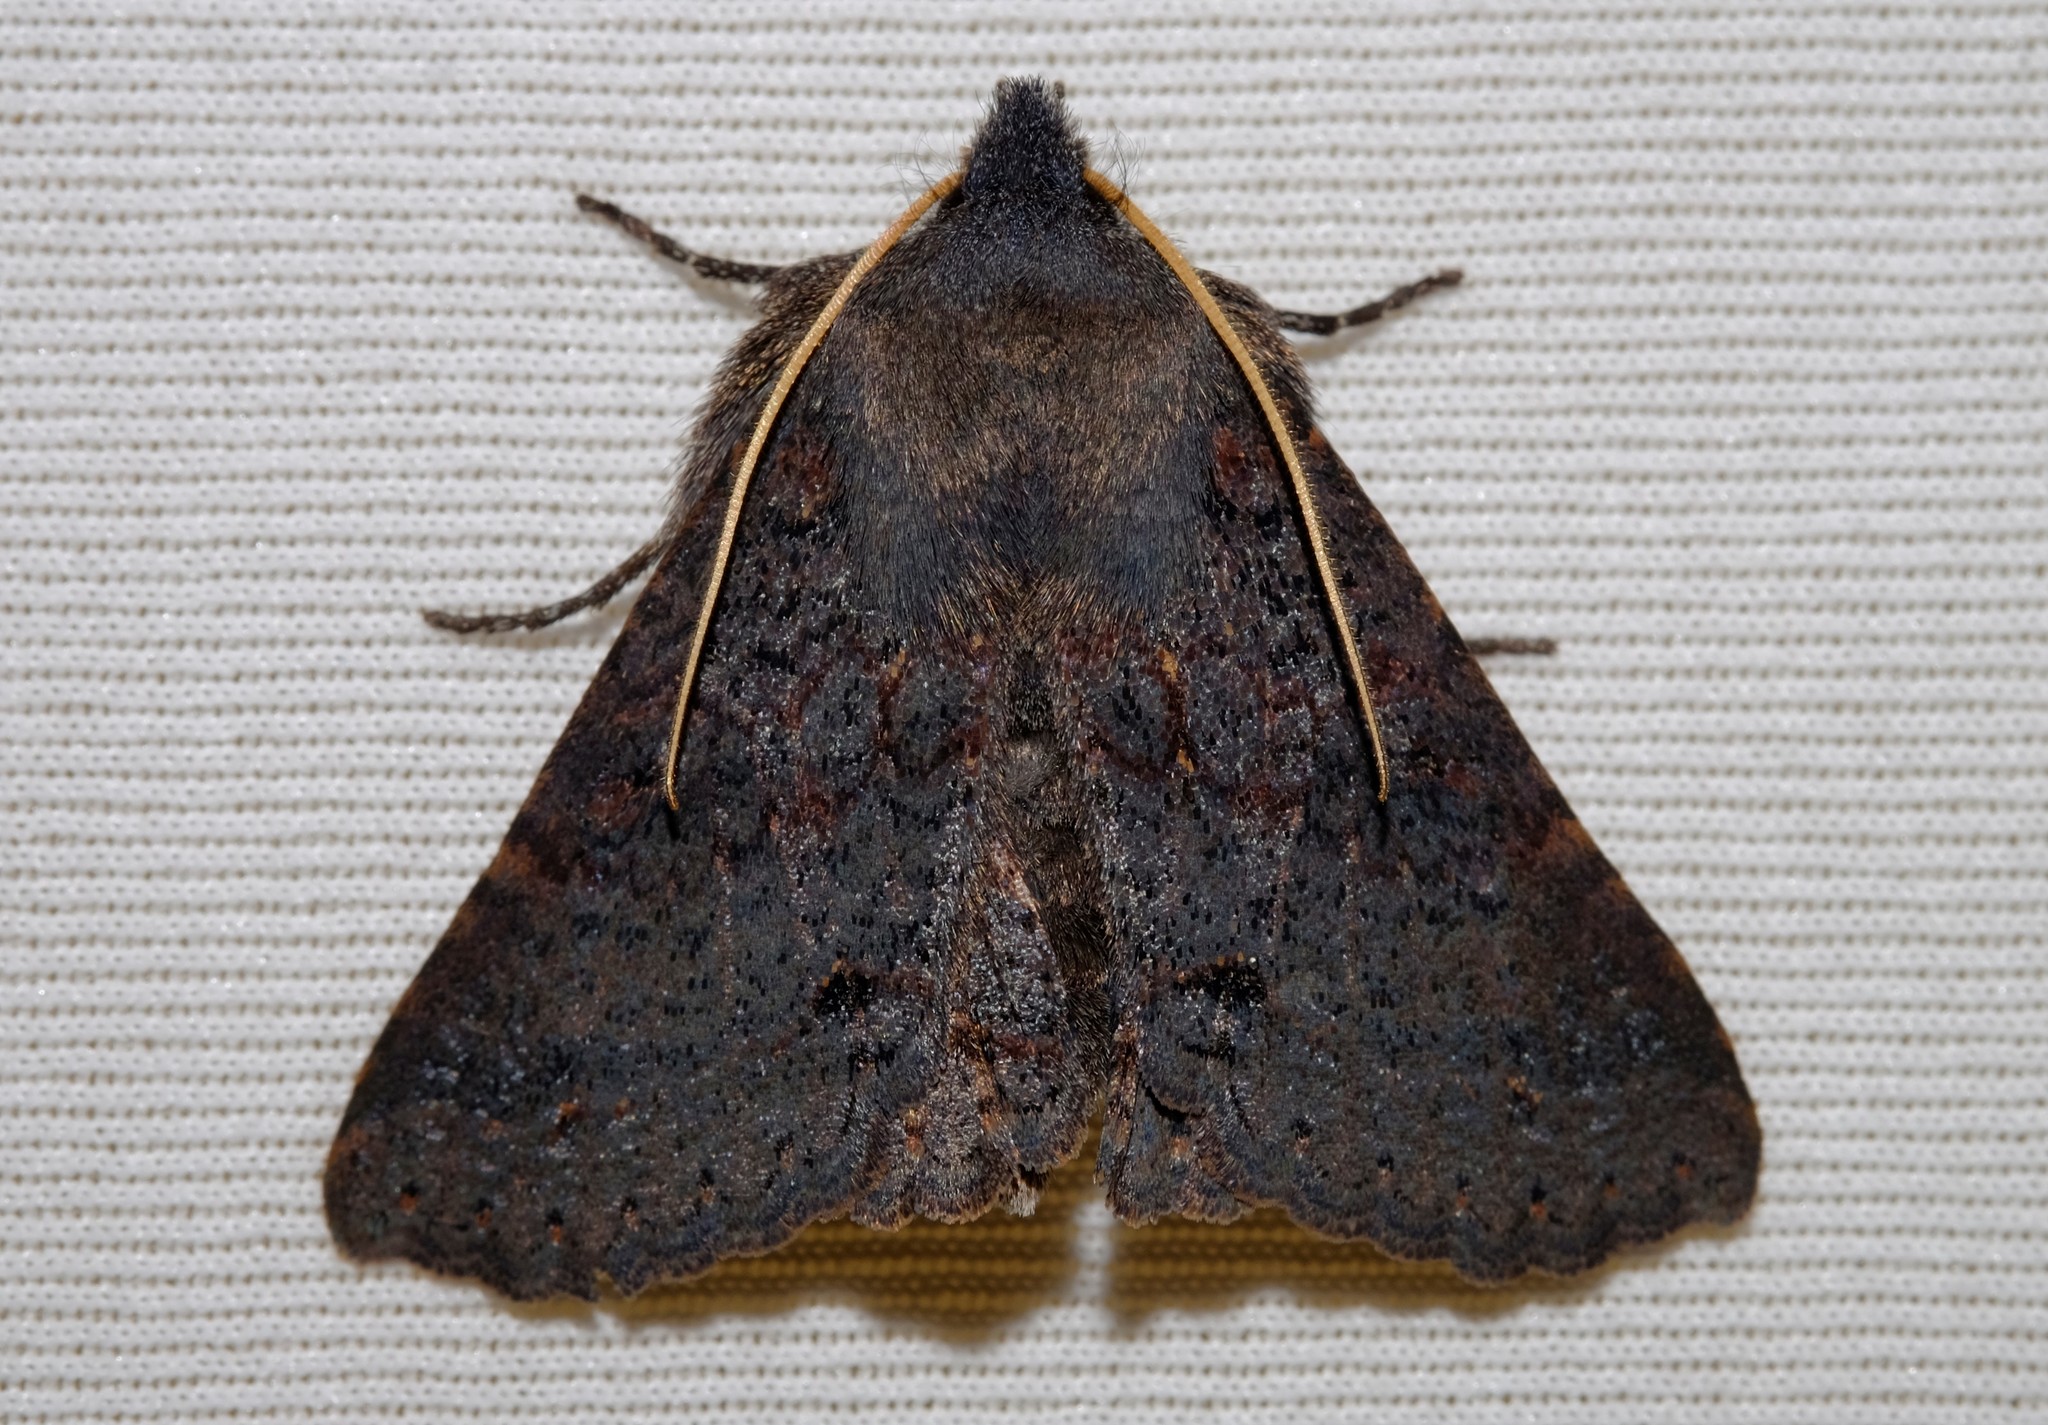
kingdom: Animalia
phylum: Arthropoda
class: Insecta
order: Lepidoptera
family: Erebidae
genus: Praxis
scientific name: Praxis pandesma
